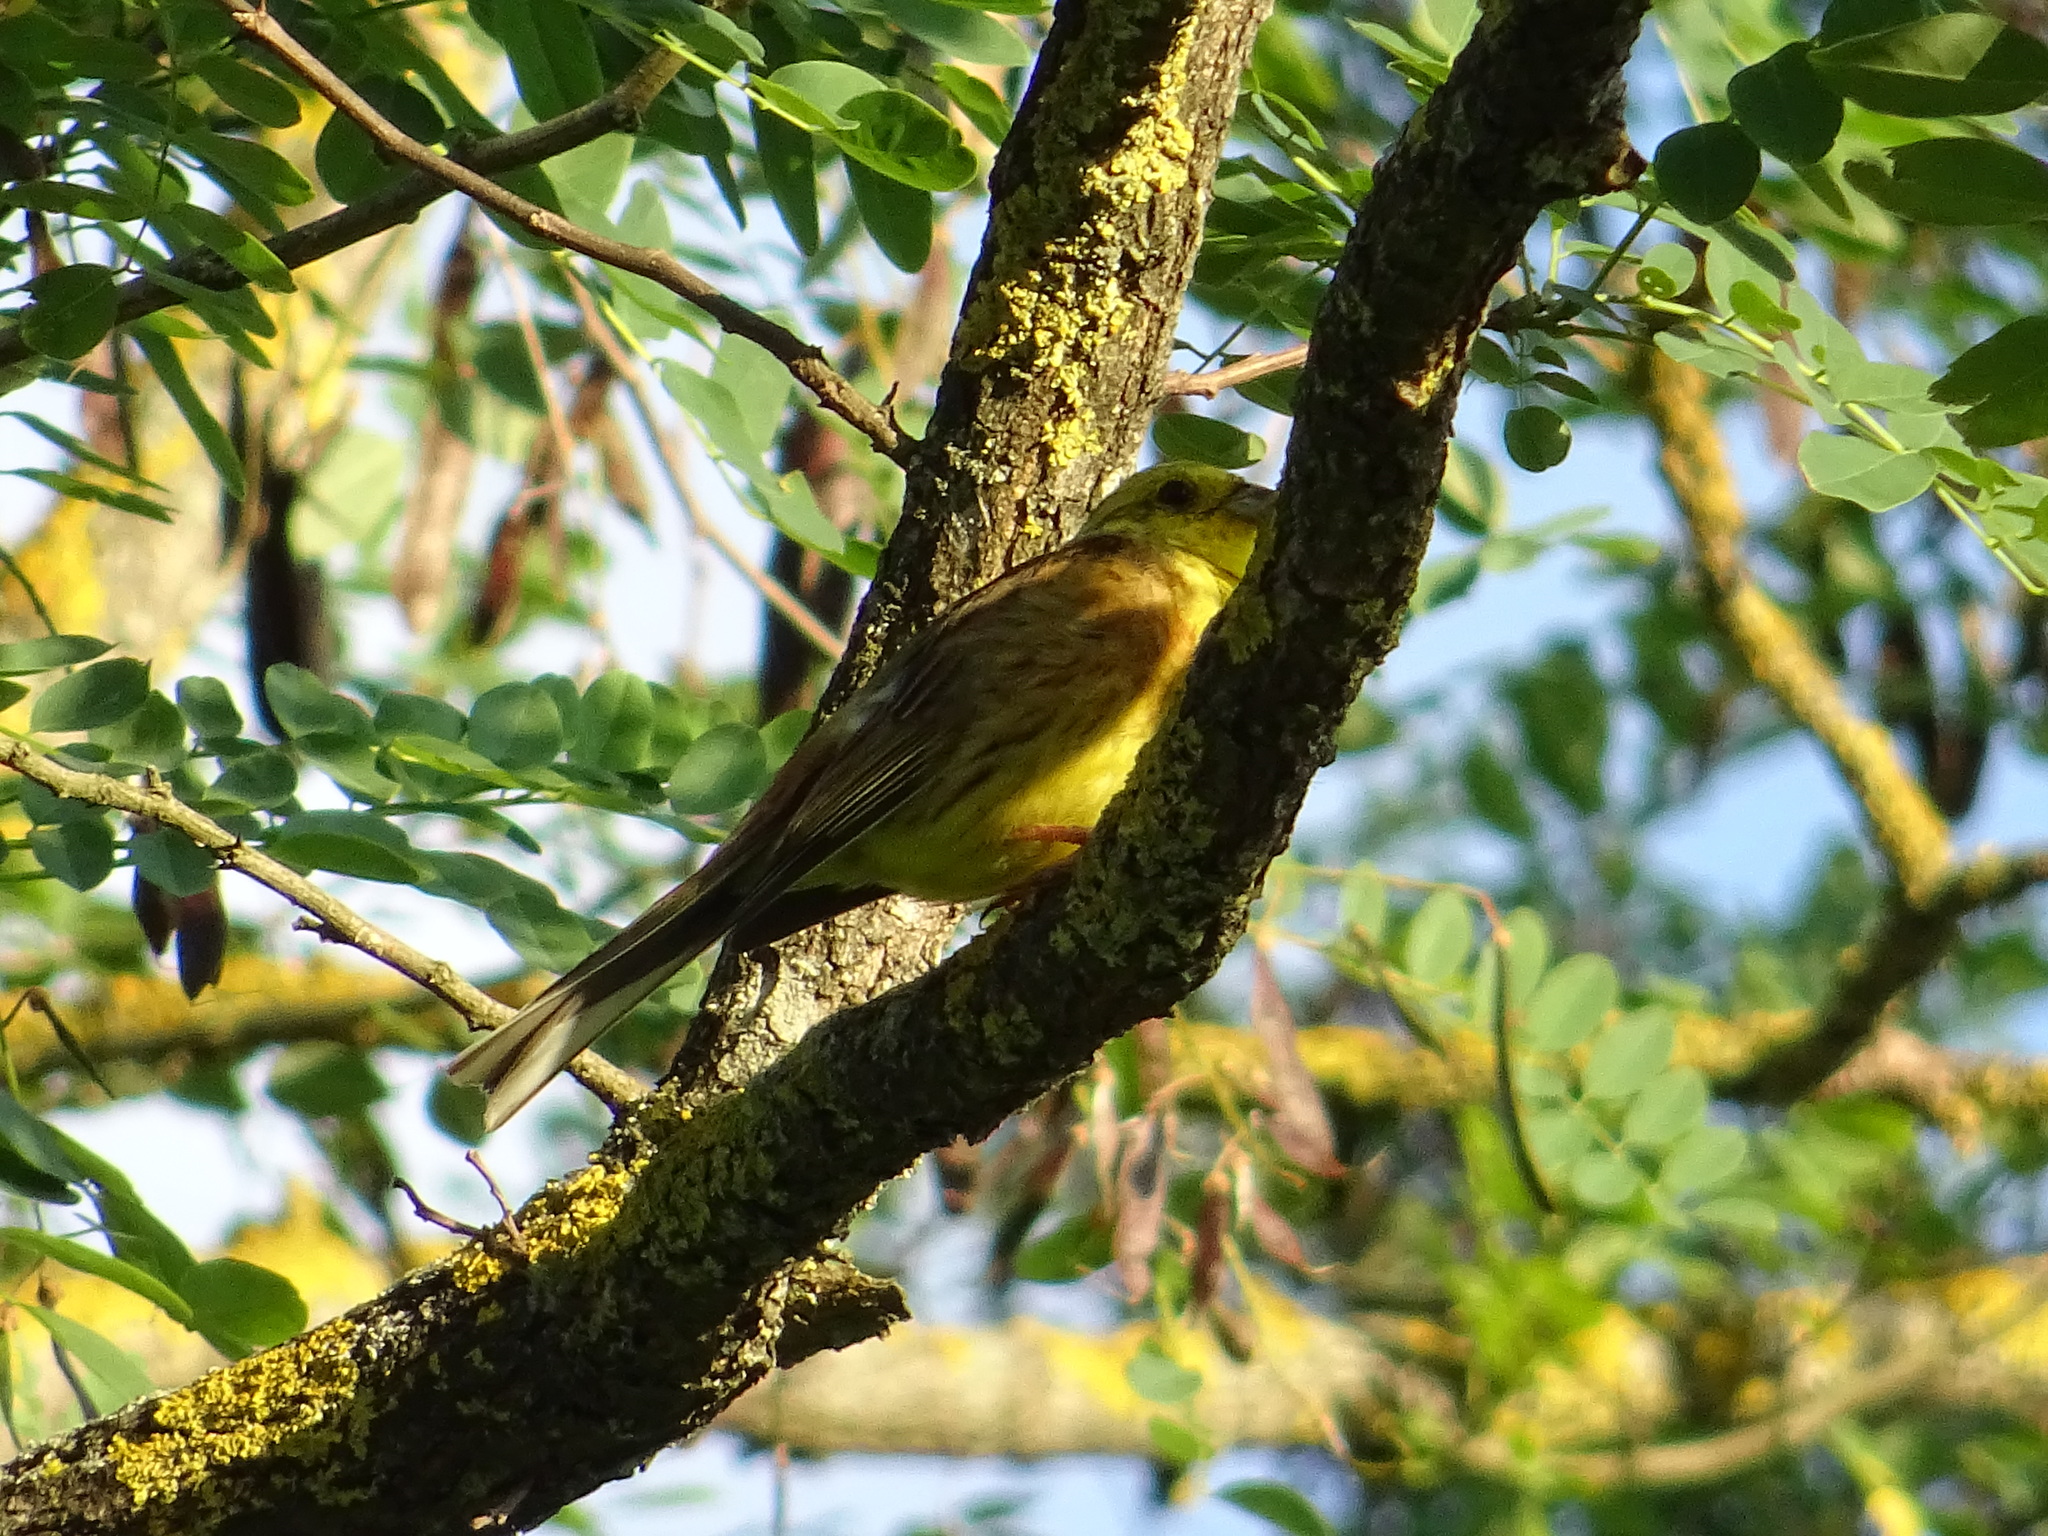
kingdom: Animalia
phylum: Chordata
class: Aves
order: Passeriformes
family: Emberizidae
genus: Emberiza
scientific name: Emberiza citrinella
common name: Yellowhammer
